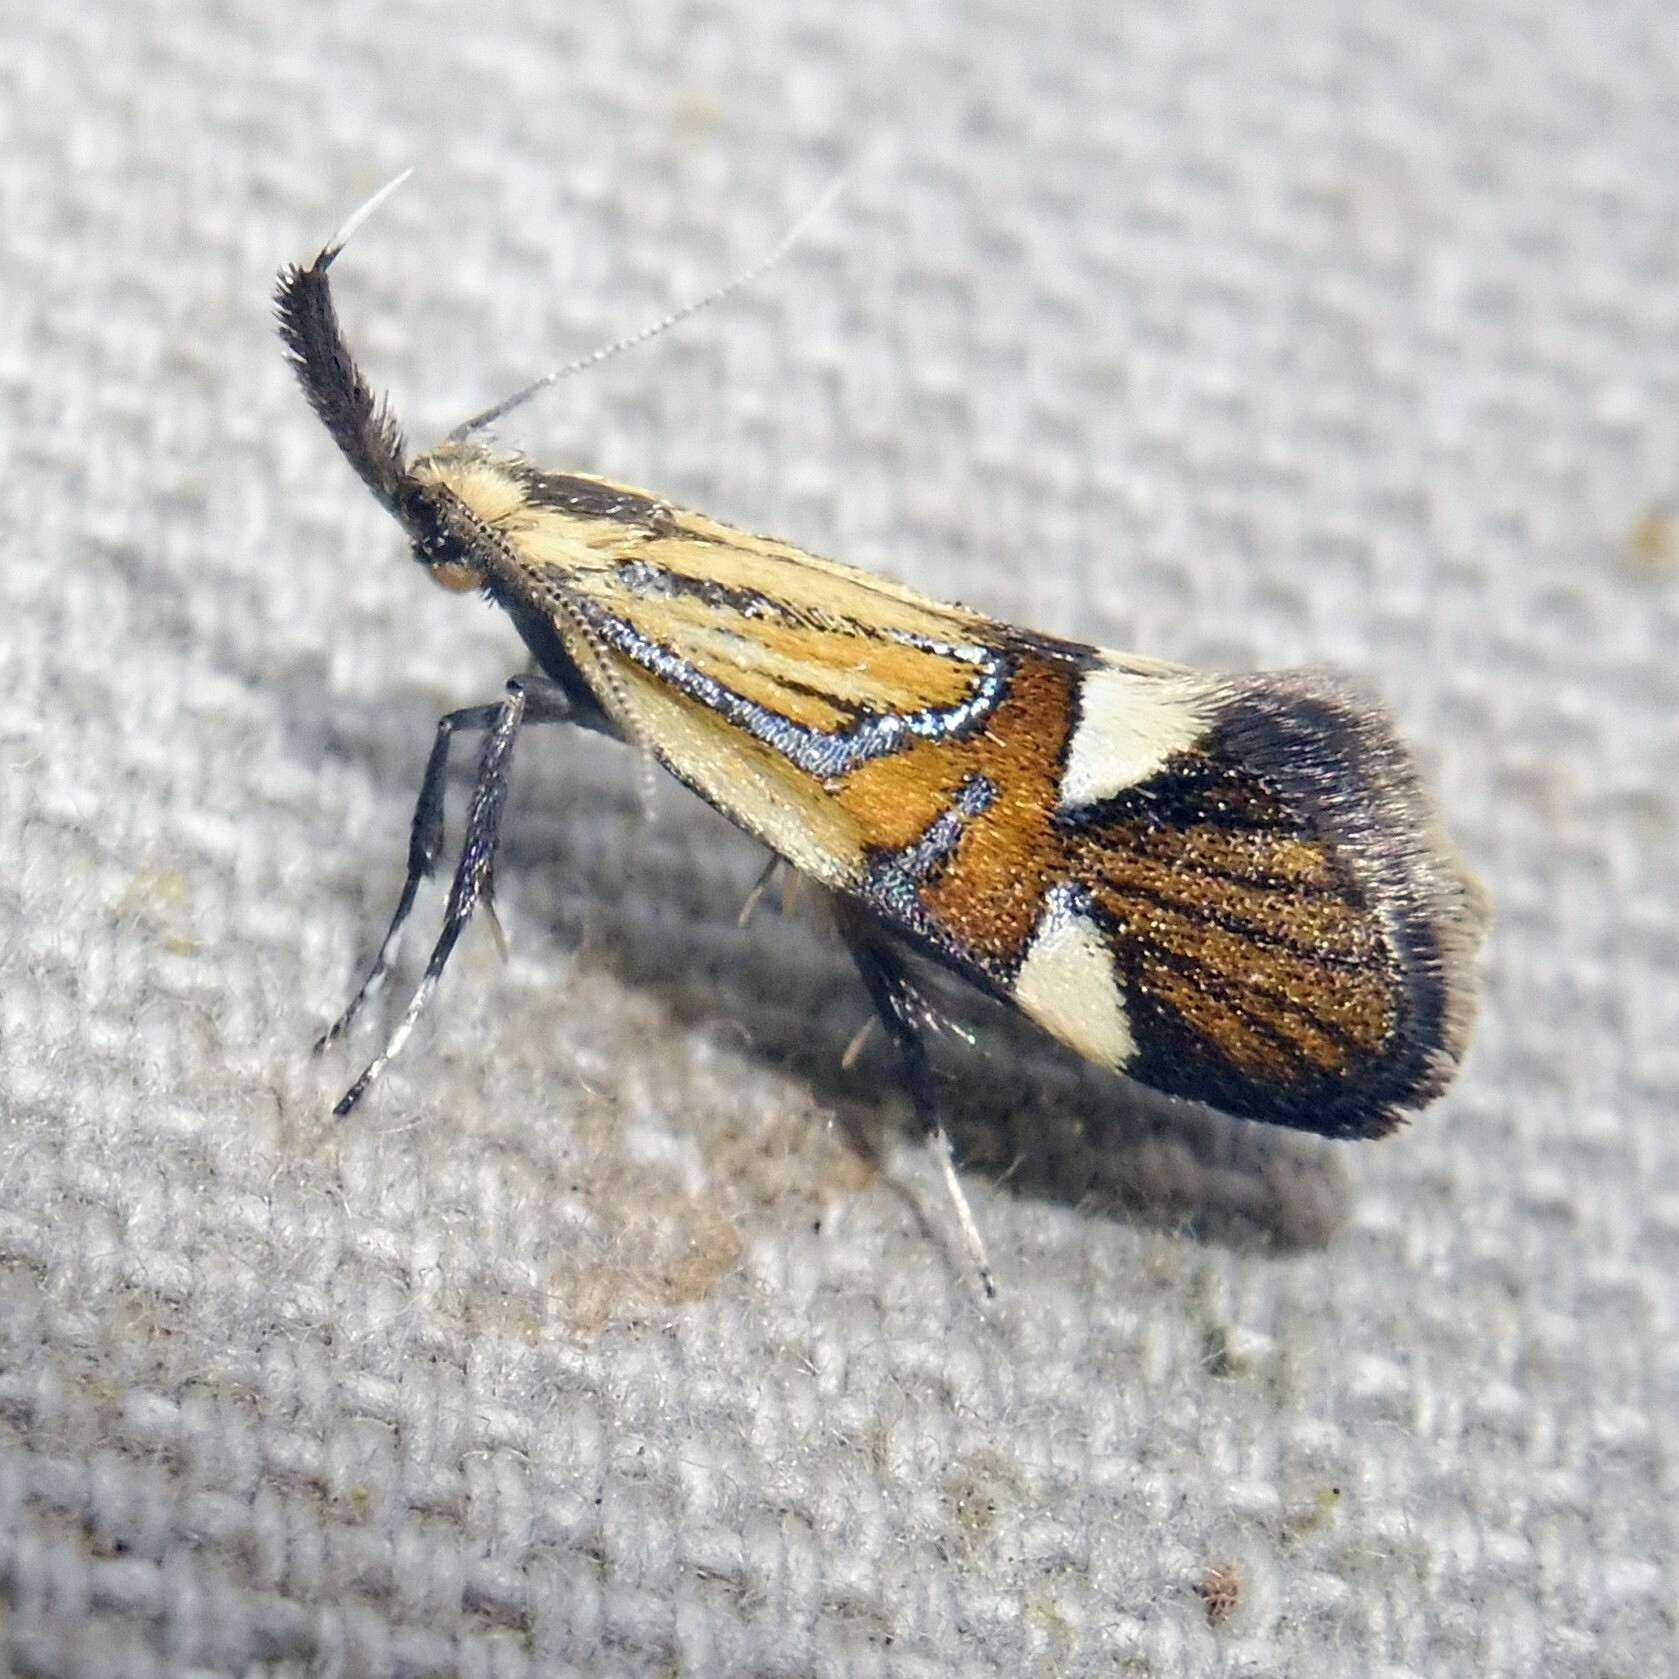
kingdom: Animalia
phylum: Arthropoda
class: Insecta
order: Lepidoptera
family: Oecophoridae
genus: Oecophora
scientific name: Oecophora Alabonia geoffrella
